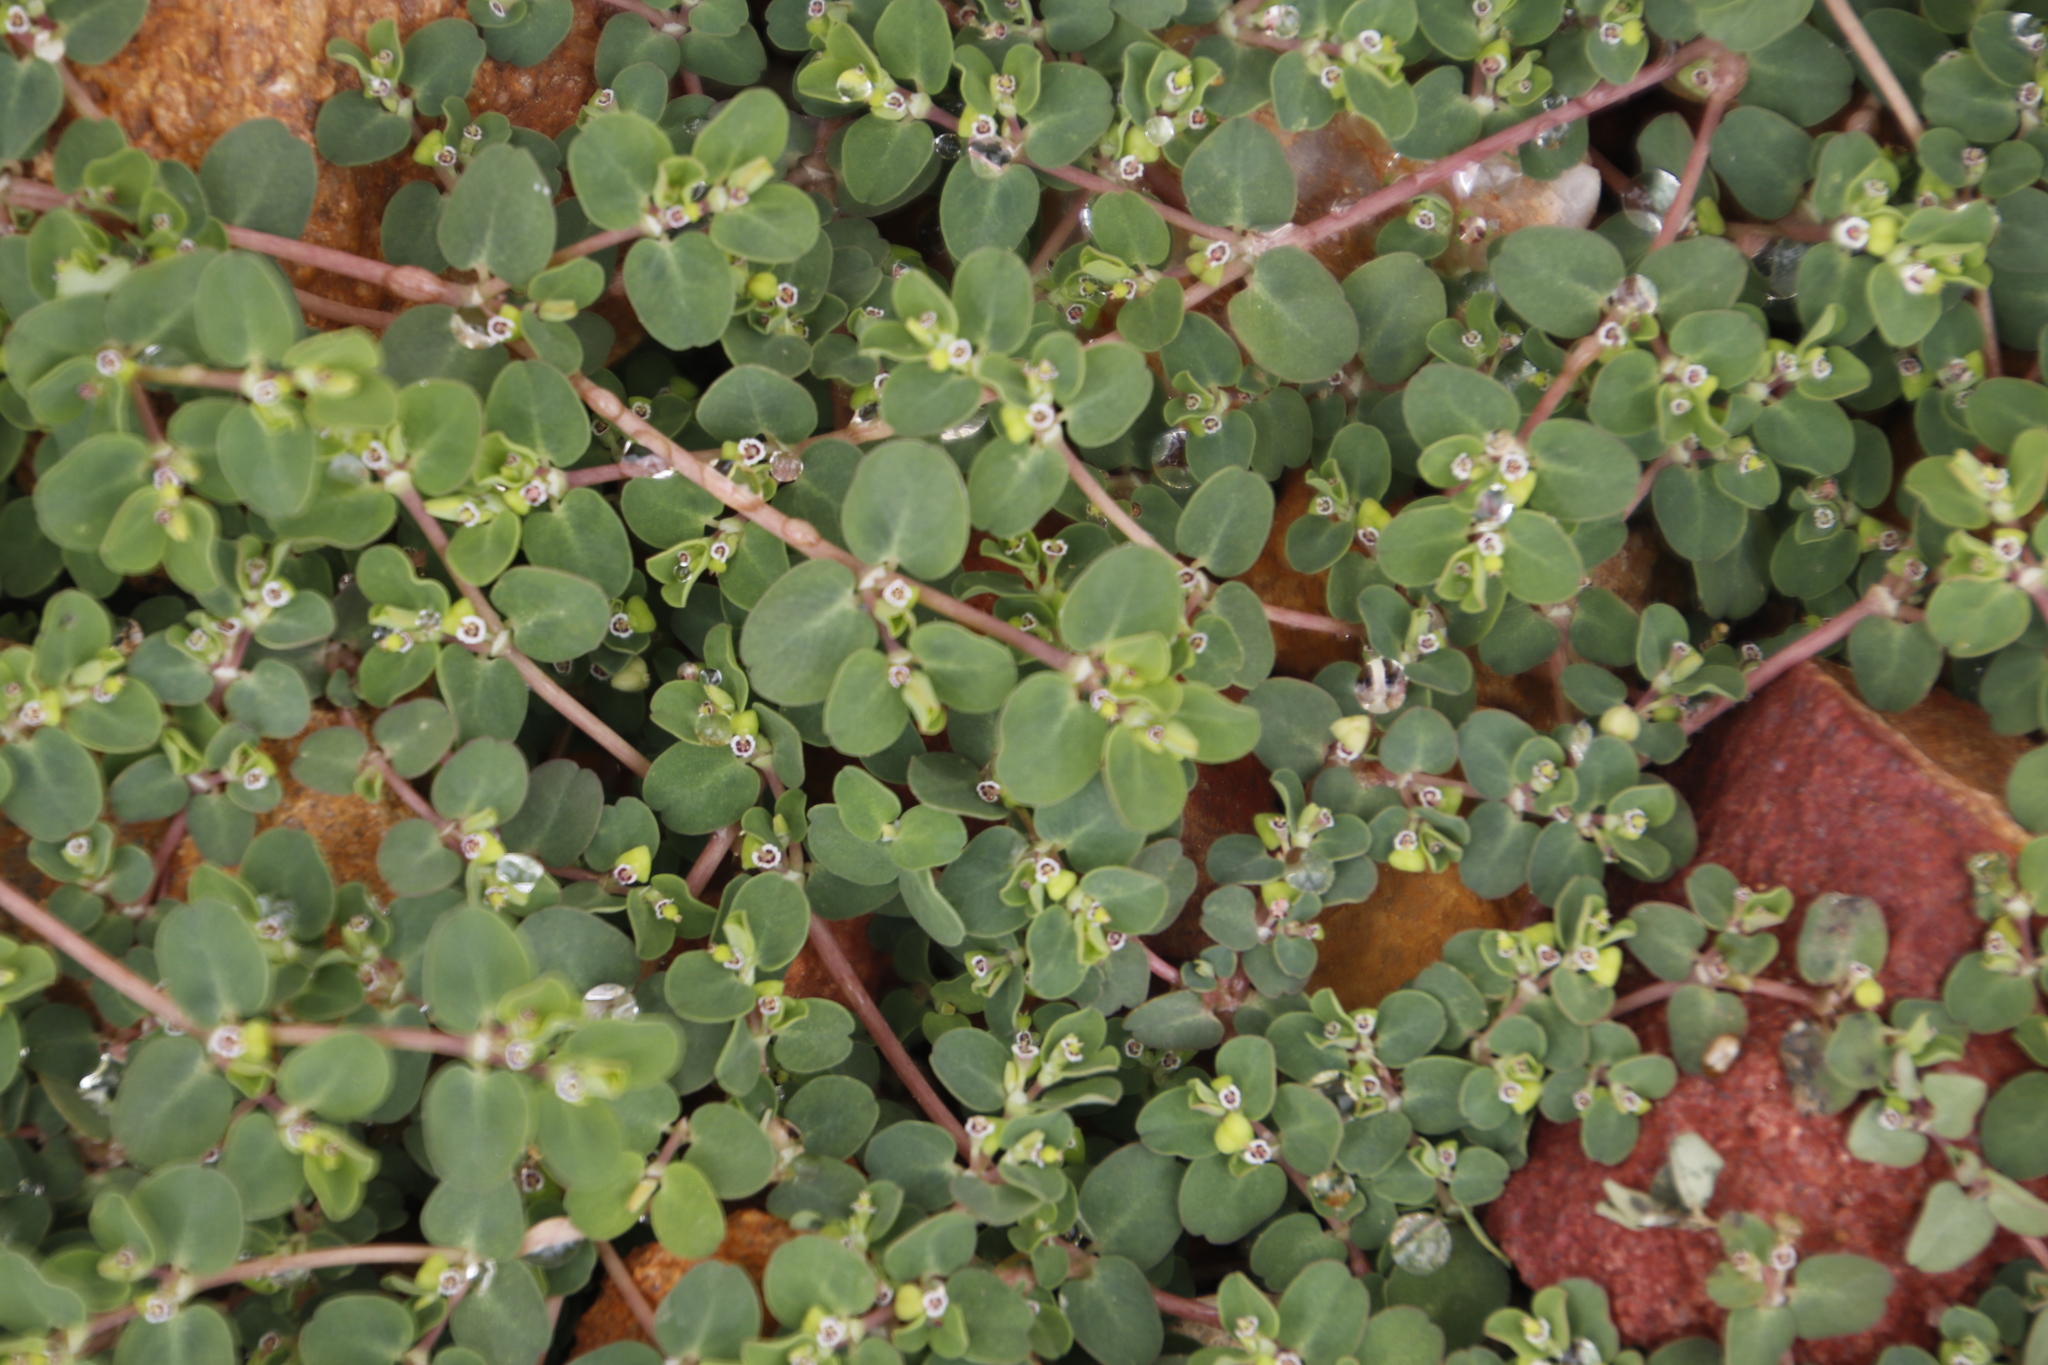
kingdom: Plantae
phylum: Tracheophyta
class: Magnoliopsida
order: Malpighiales
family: Euphorbiaceae
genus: Euphorbia
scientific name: Euphorbia serpens
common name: Matted sandmat
